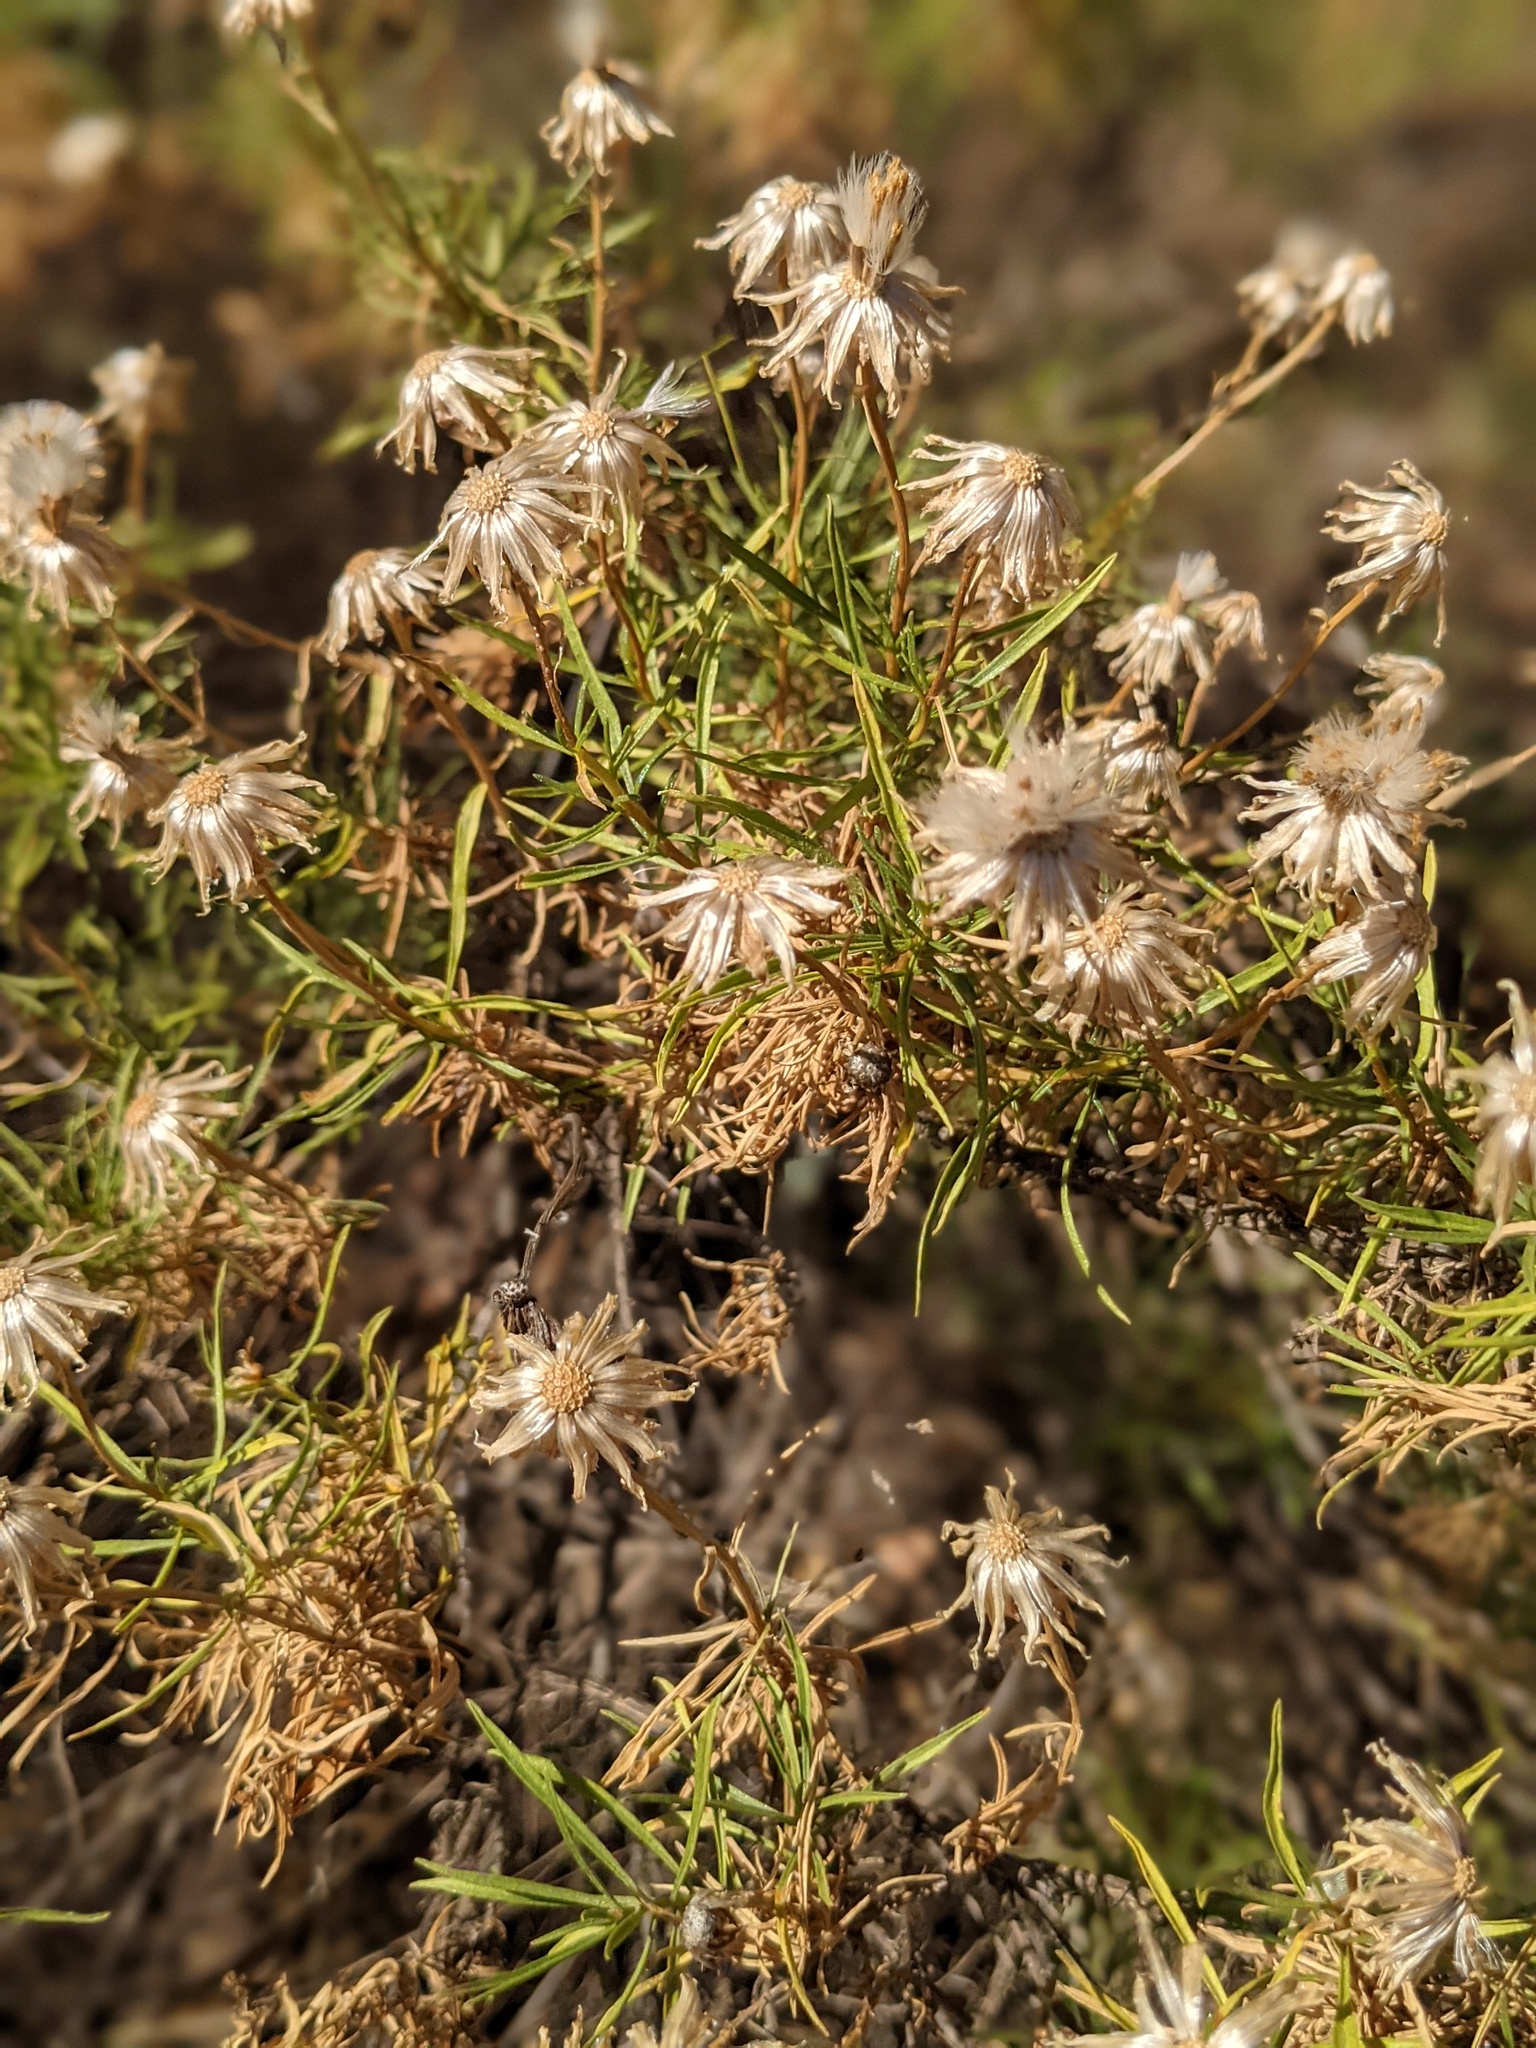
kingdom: Plantae
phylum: Tracheophyta
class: Magnoliopsida
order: Asterales
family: Asteraceae
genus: Ericameria
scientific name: Ericameria linearifolia
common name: Interior goldenbush
